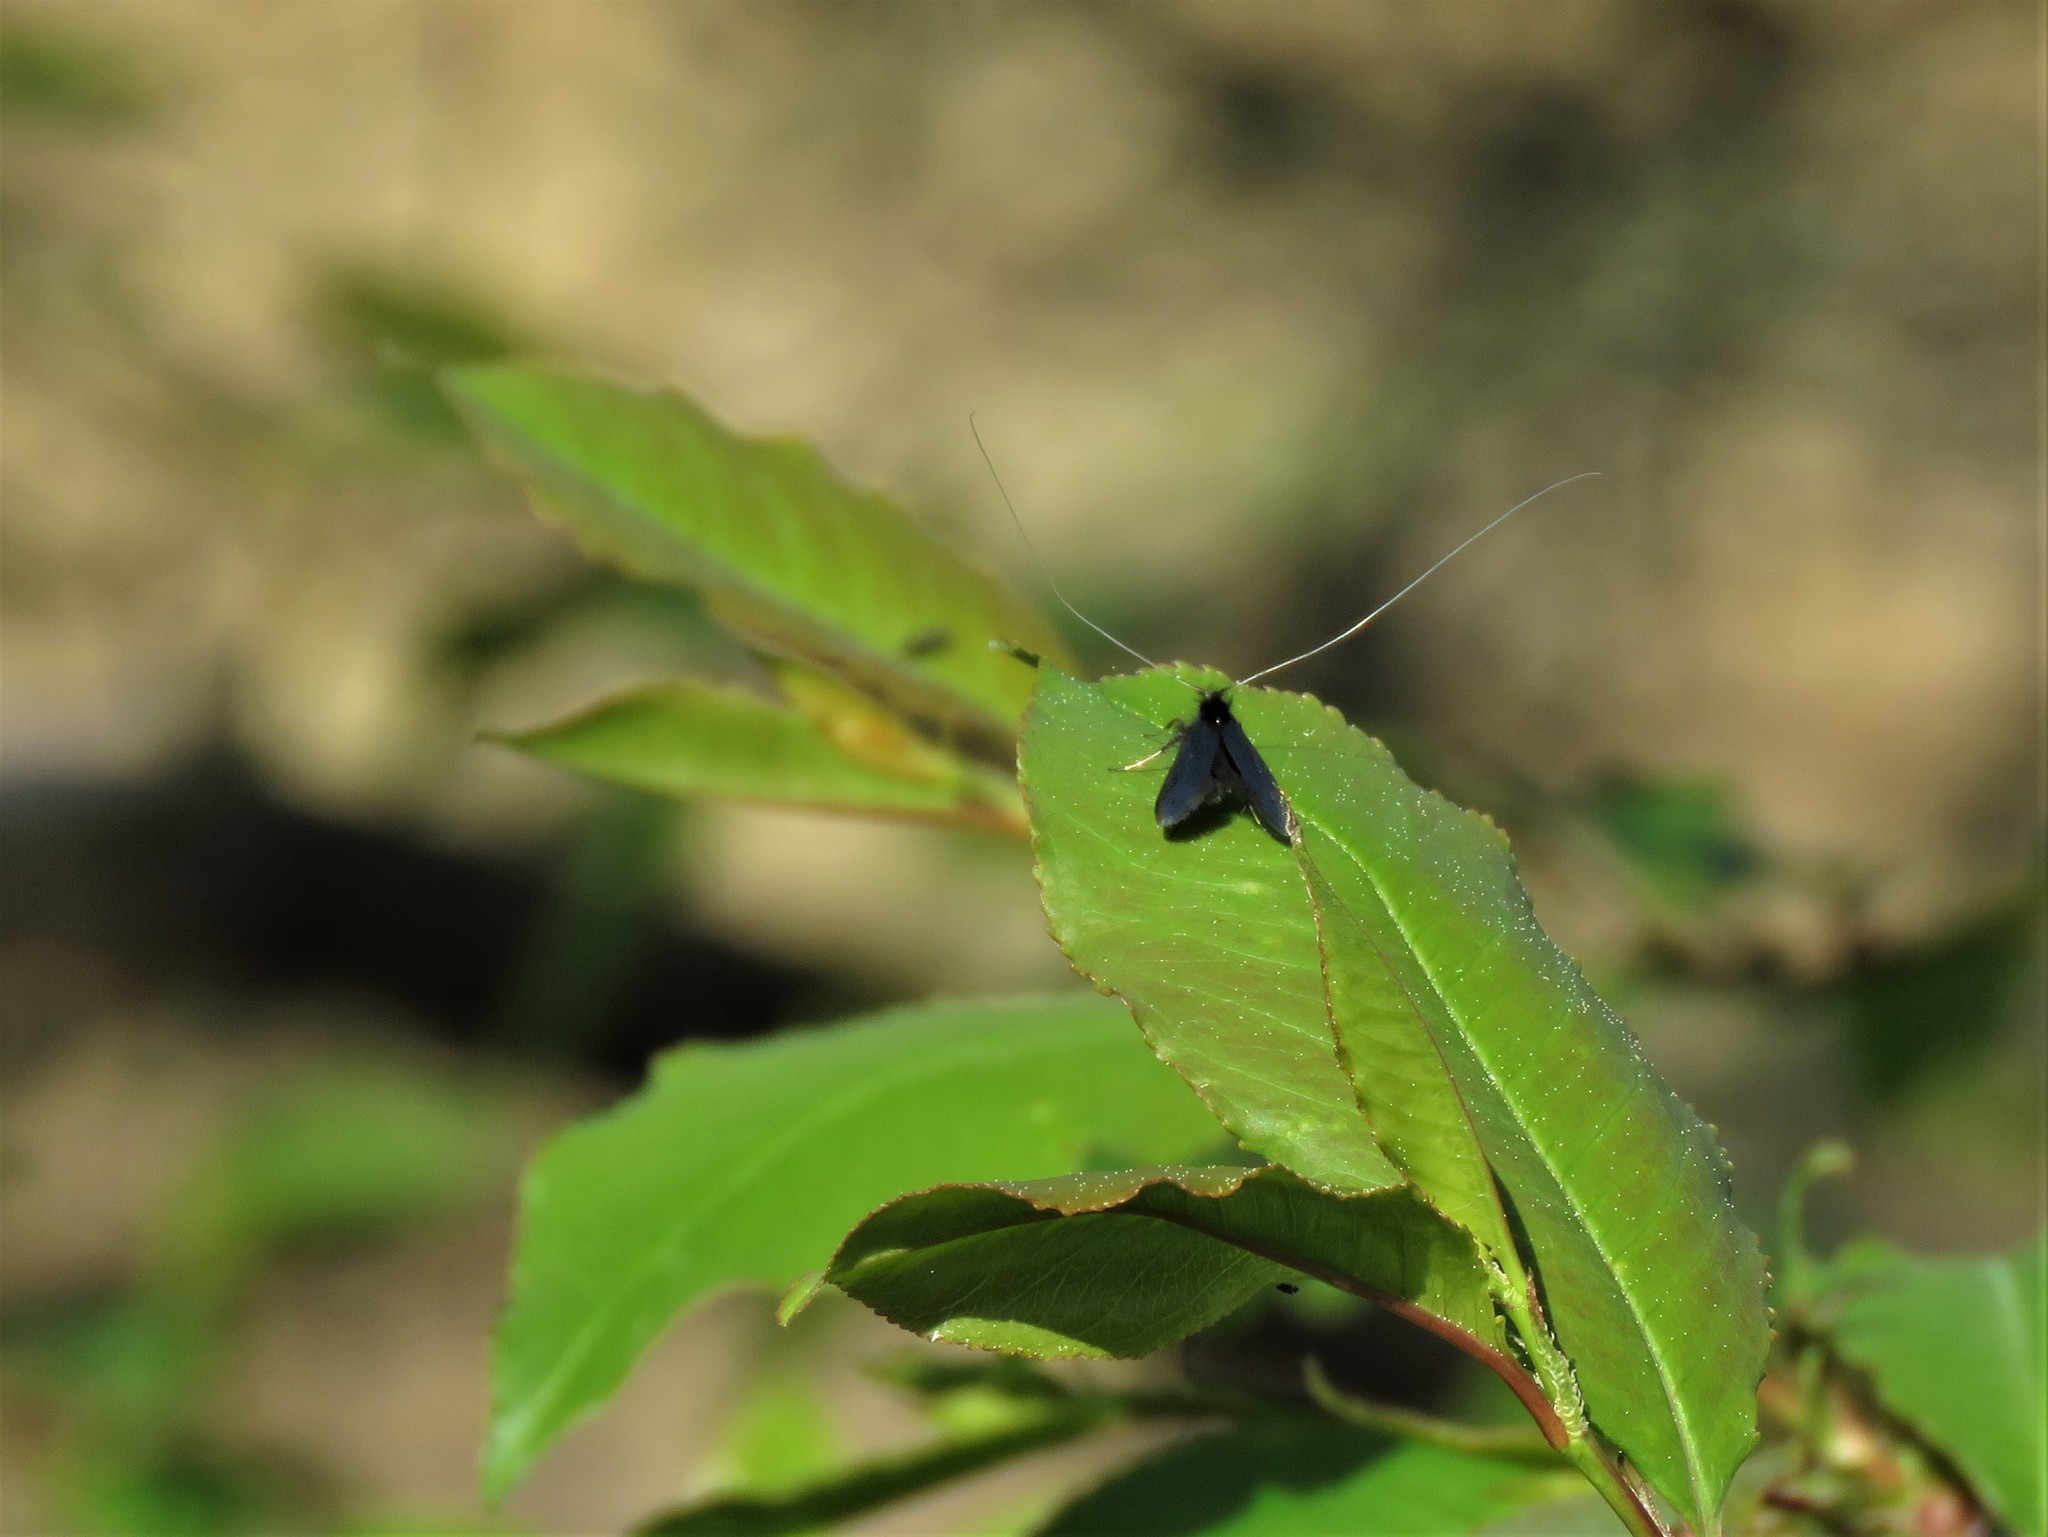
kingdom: Animalia
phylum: Arthropoda
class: Insecta
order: Lepidoptera
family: Adelidae
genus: Adela
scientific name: Adela viridella
